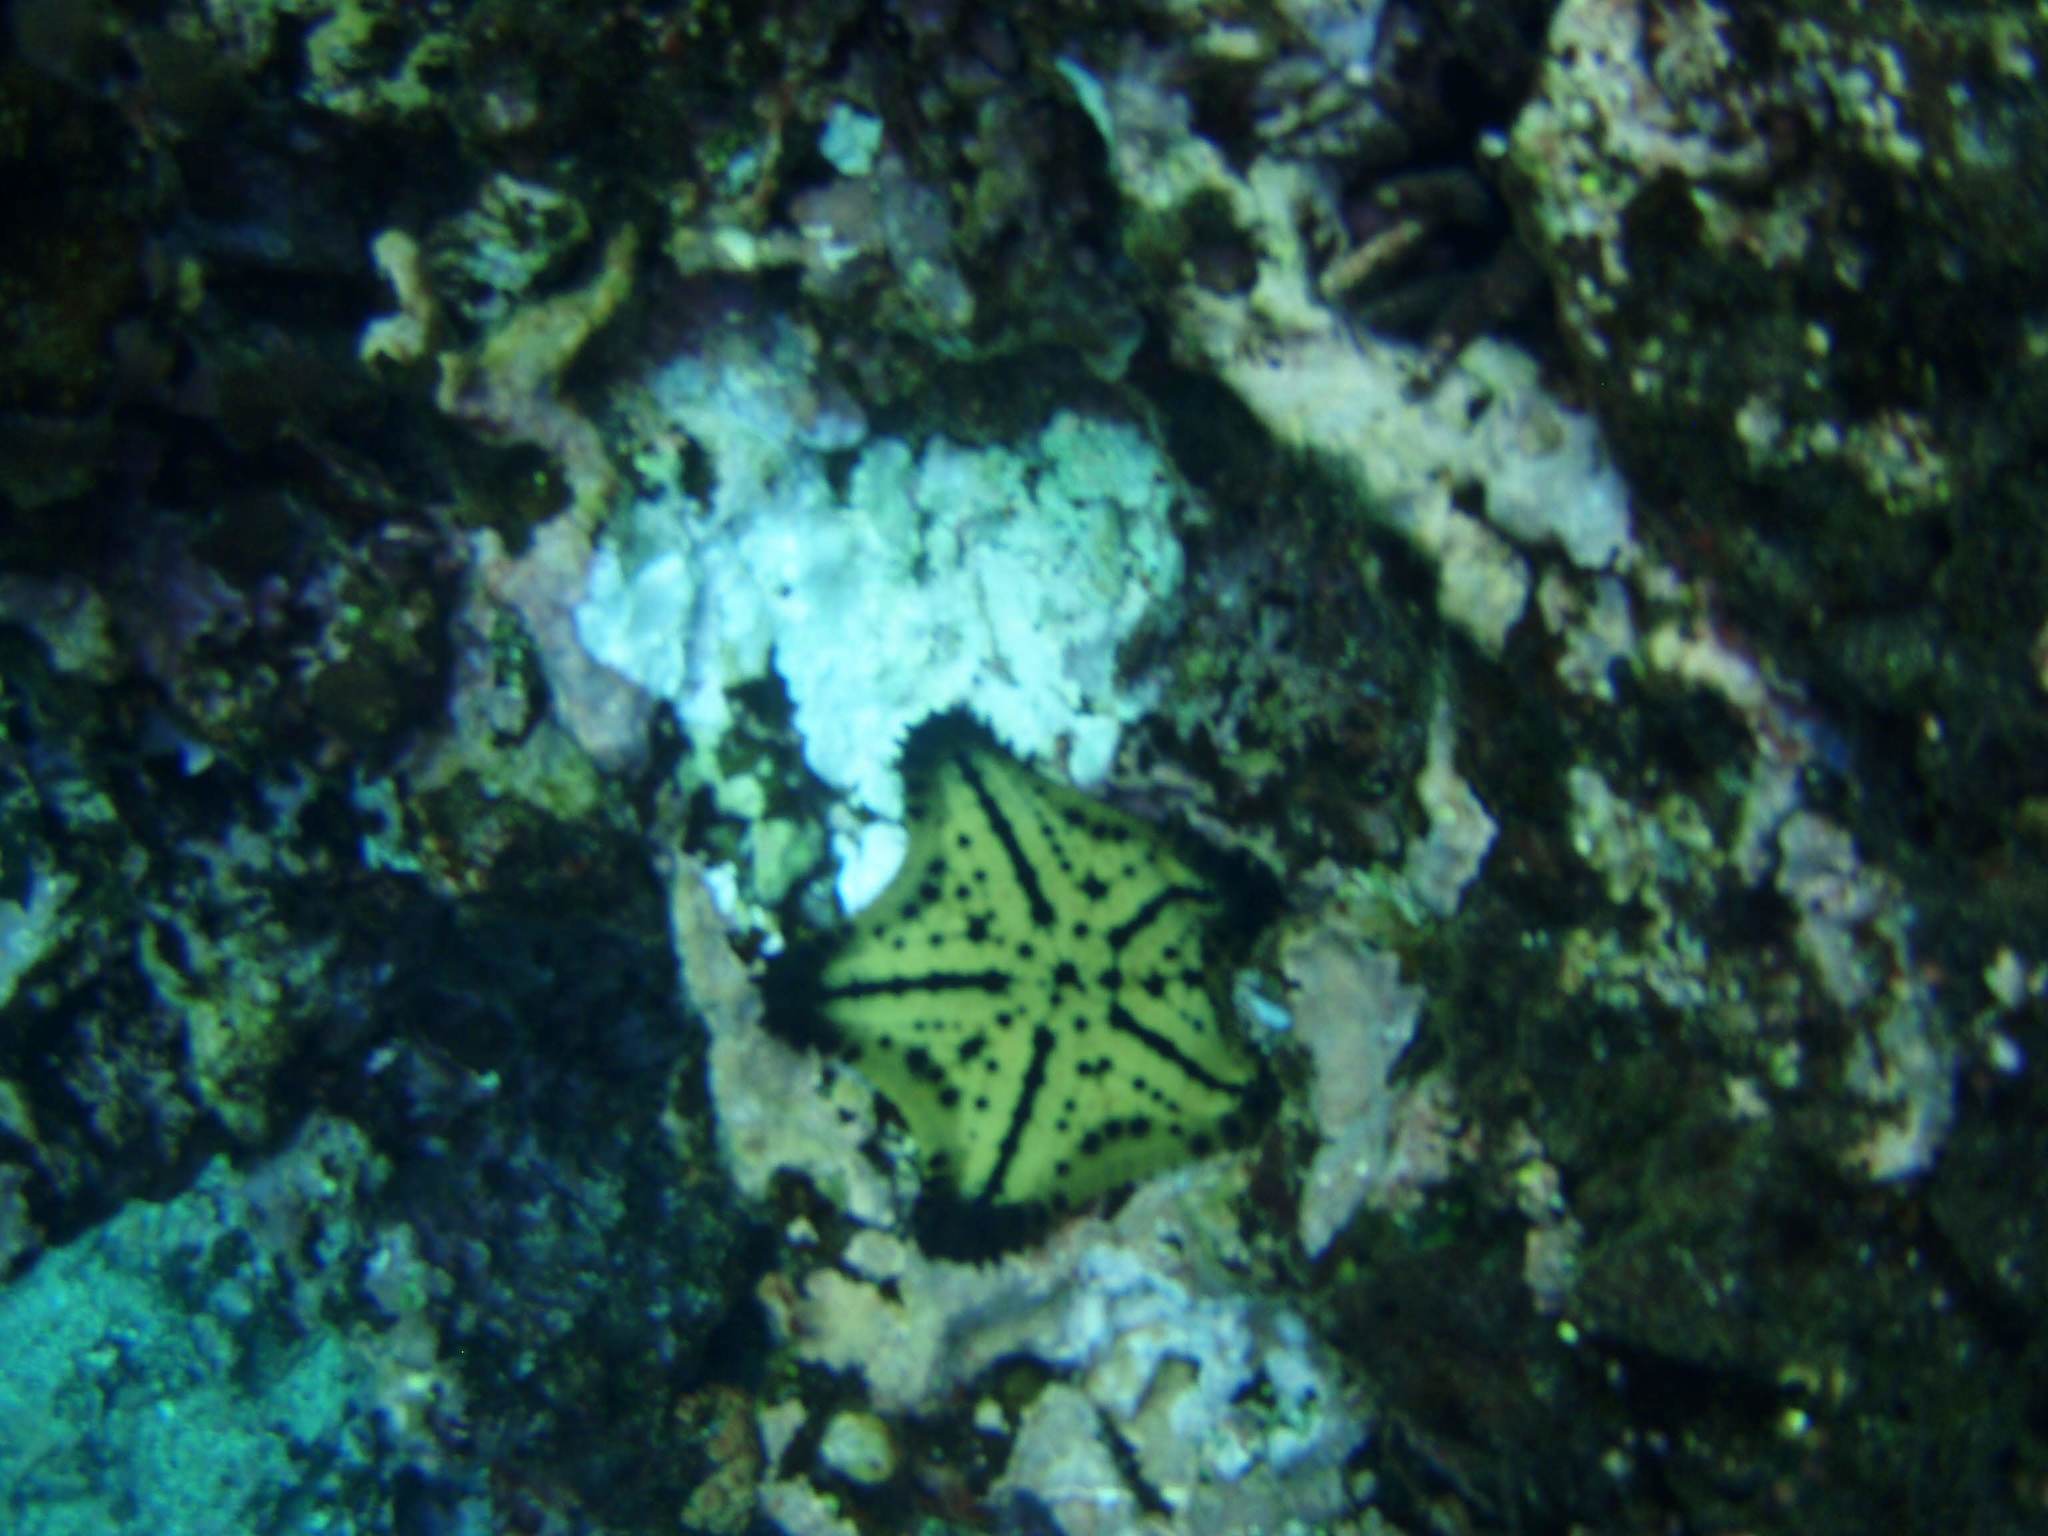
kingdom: Animalia
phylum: Echinodermata
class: Asteroidea
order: Valvatida
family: Oreasteridae
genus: Nidorellia
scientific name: Nidorellia armata
